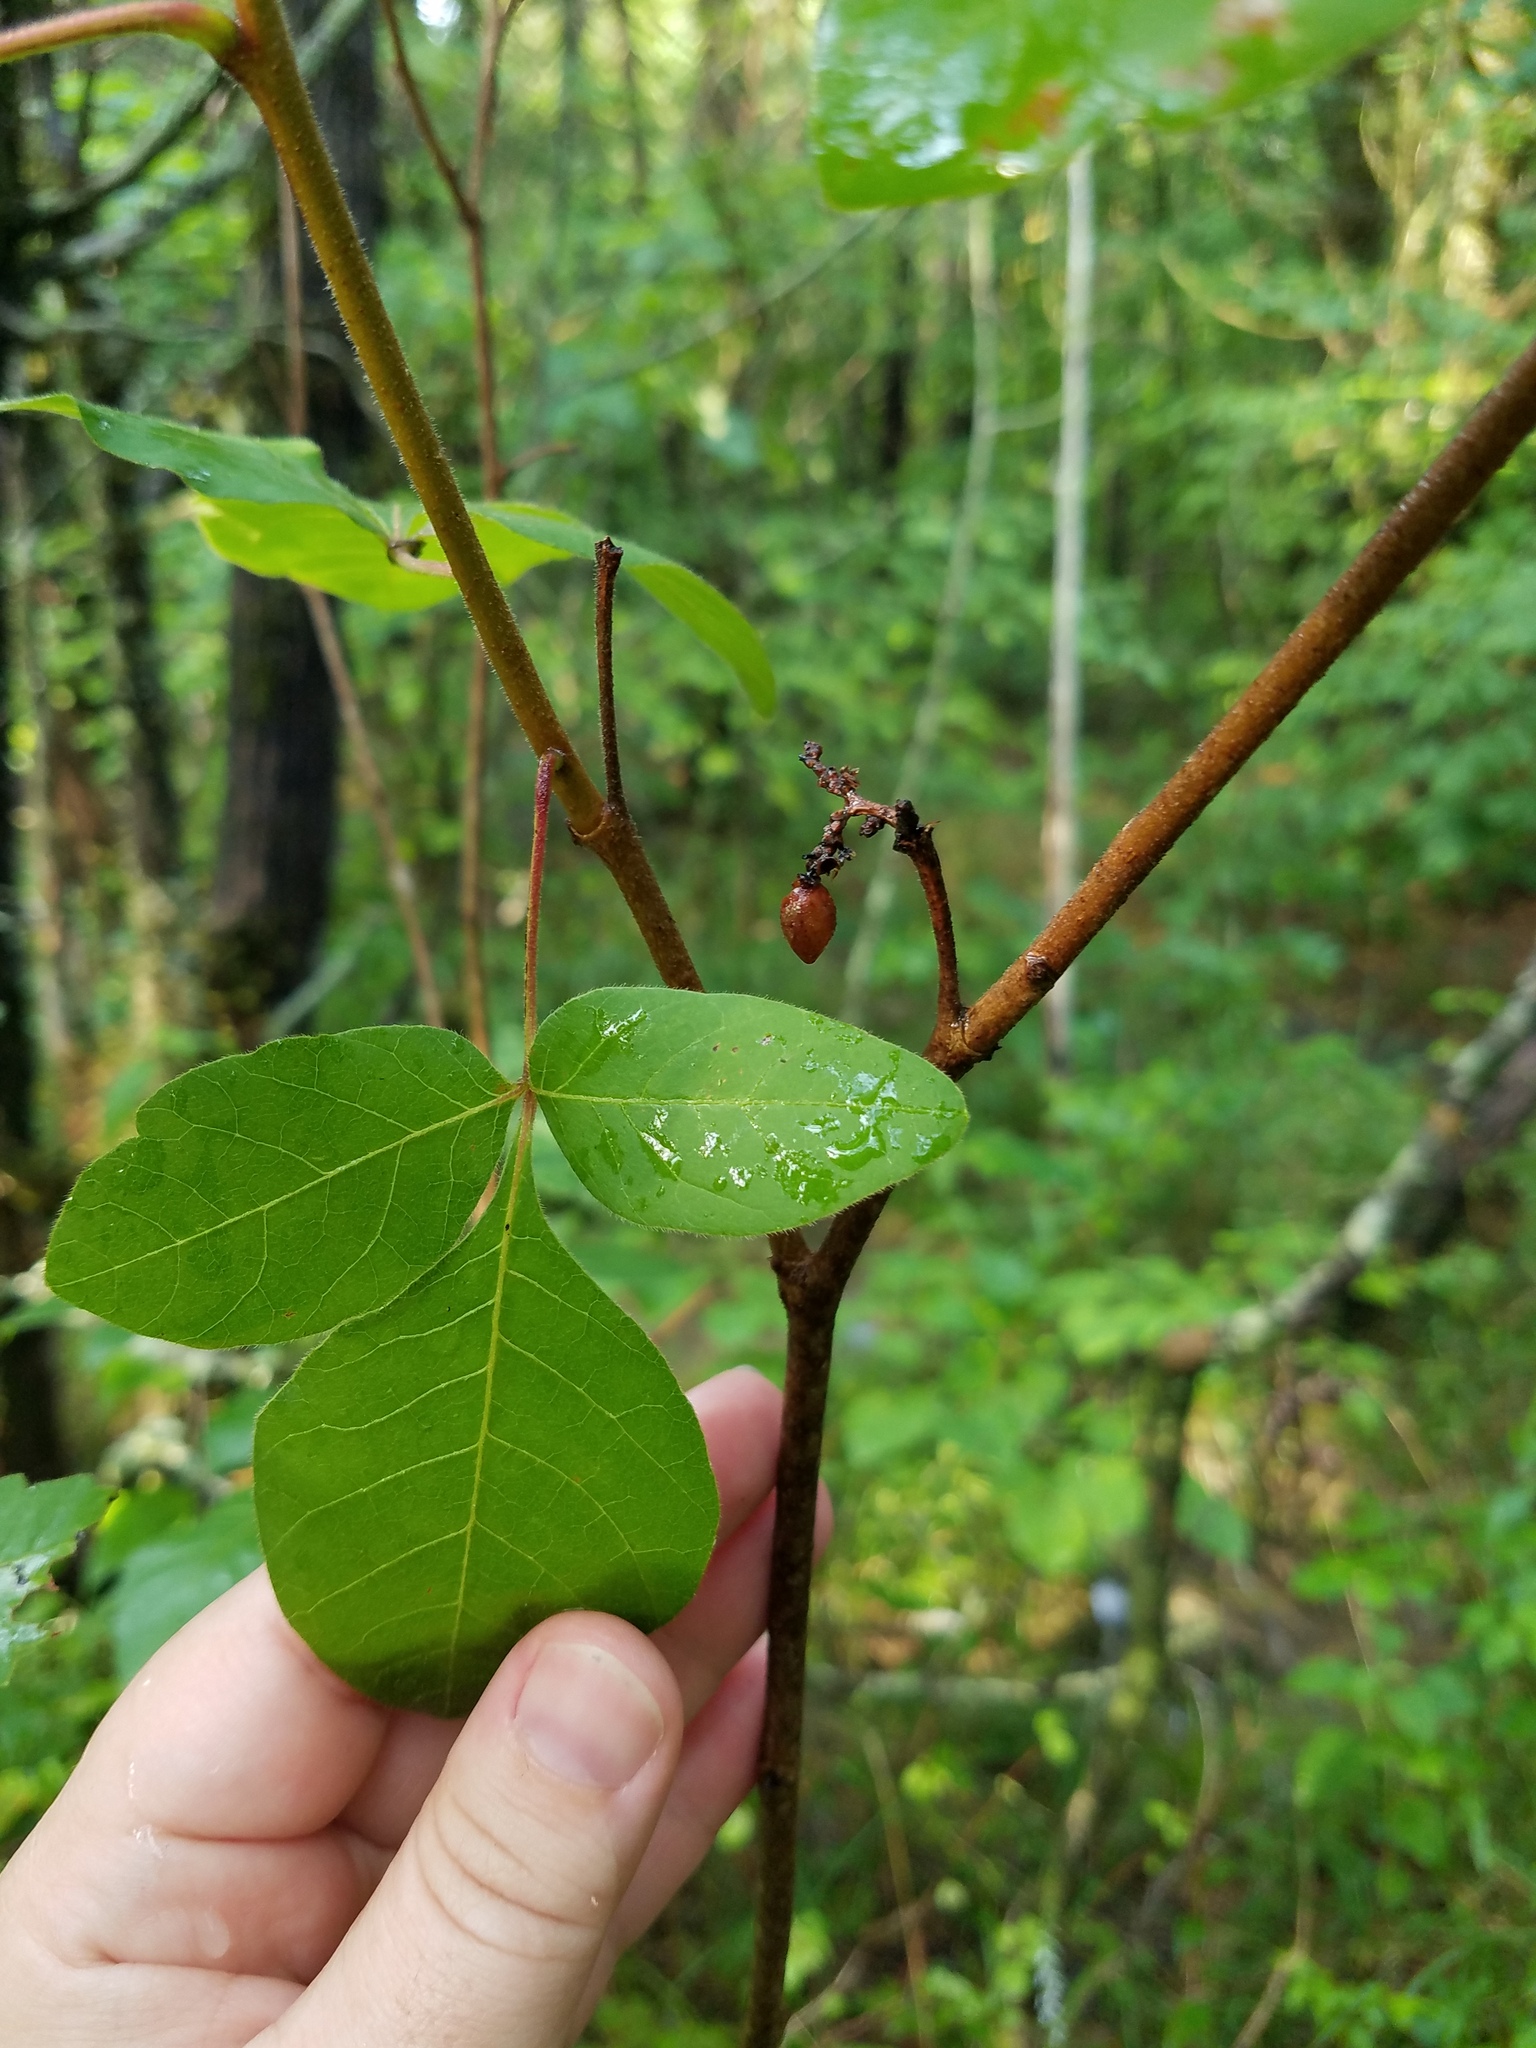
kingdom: Plantae
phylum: Tracheophyta
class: Magnoliopsida
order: Sapindales
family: Anacardiaceae
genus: Rhus
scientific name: Rhus aromatica
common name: Aromatic sumac
